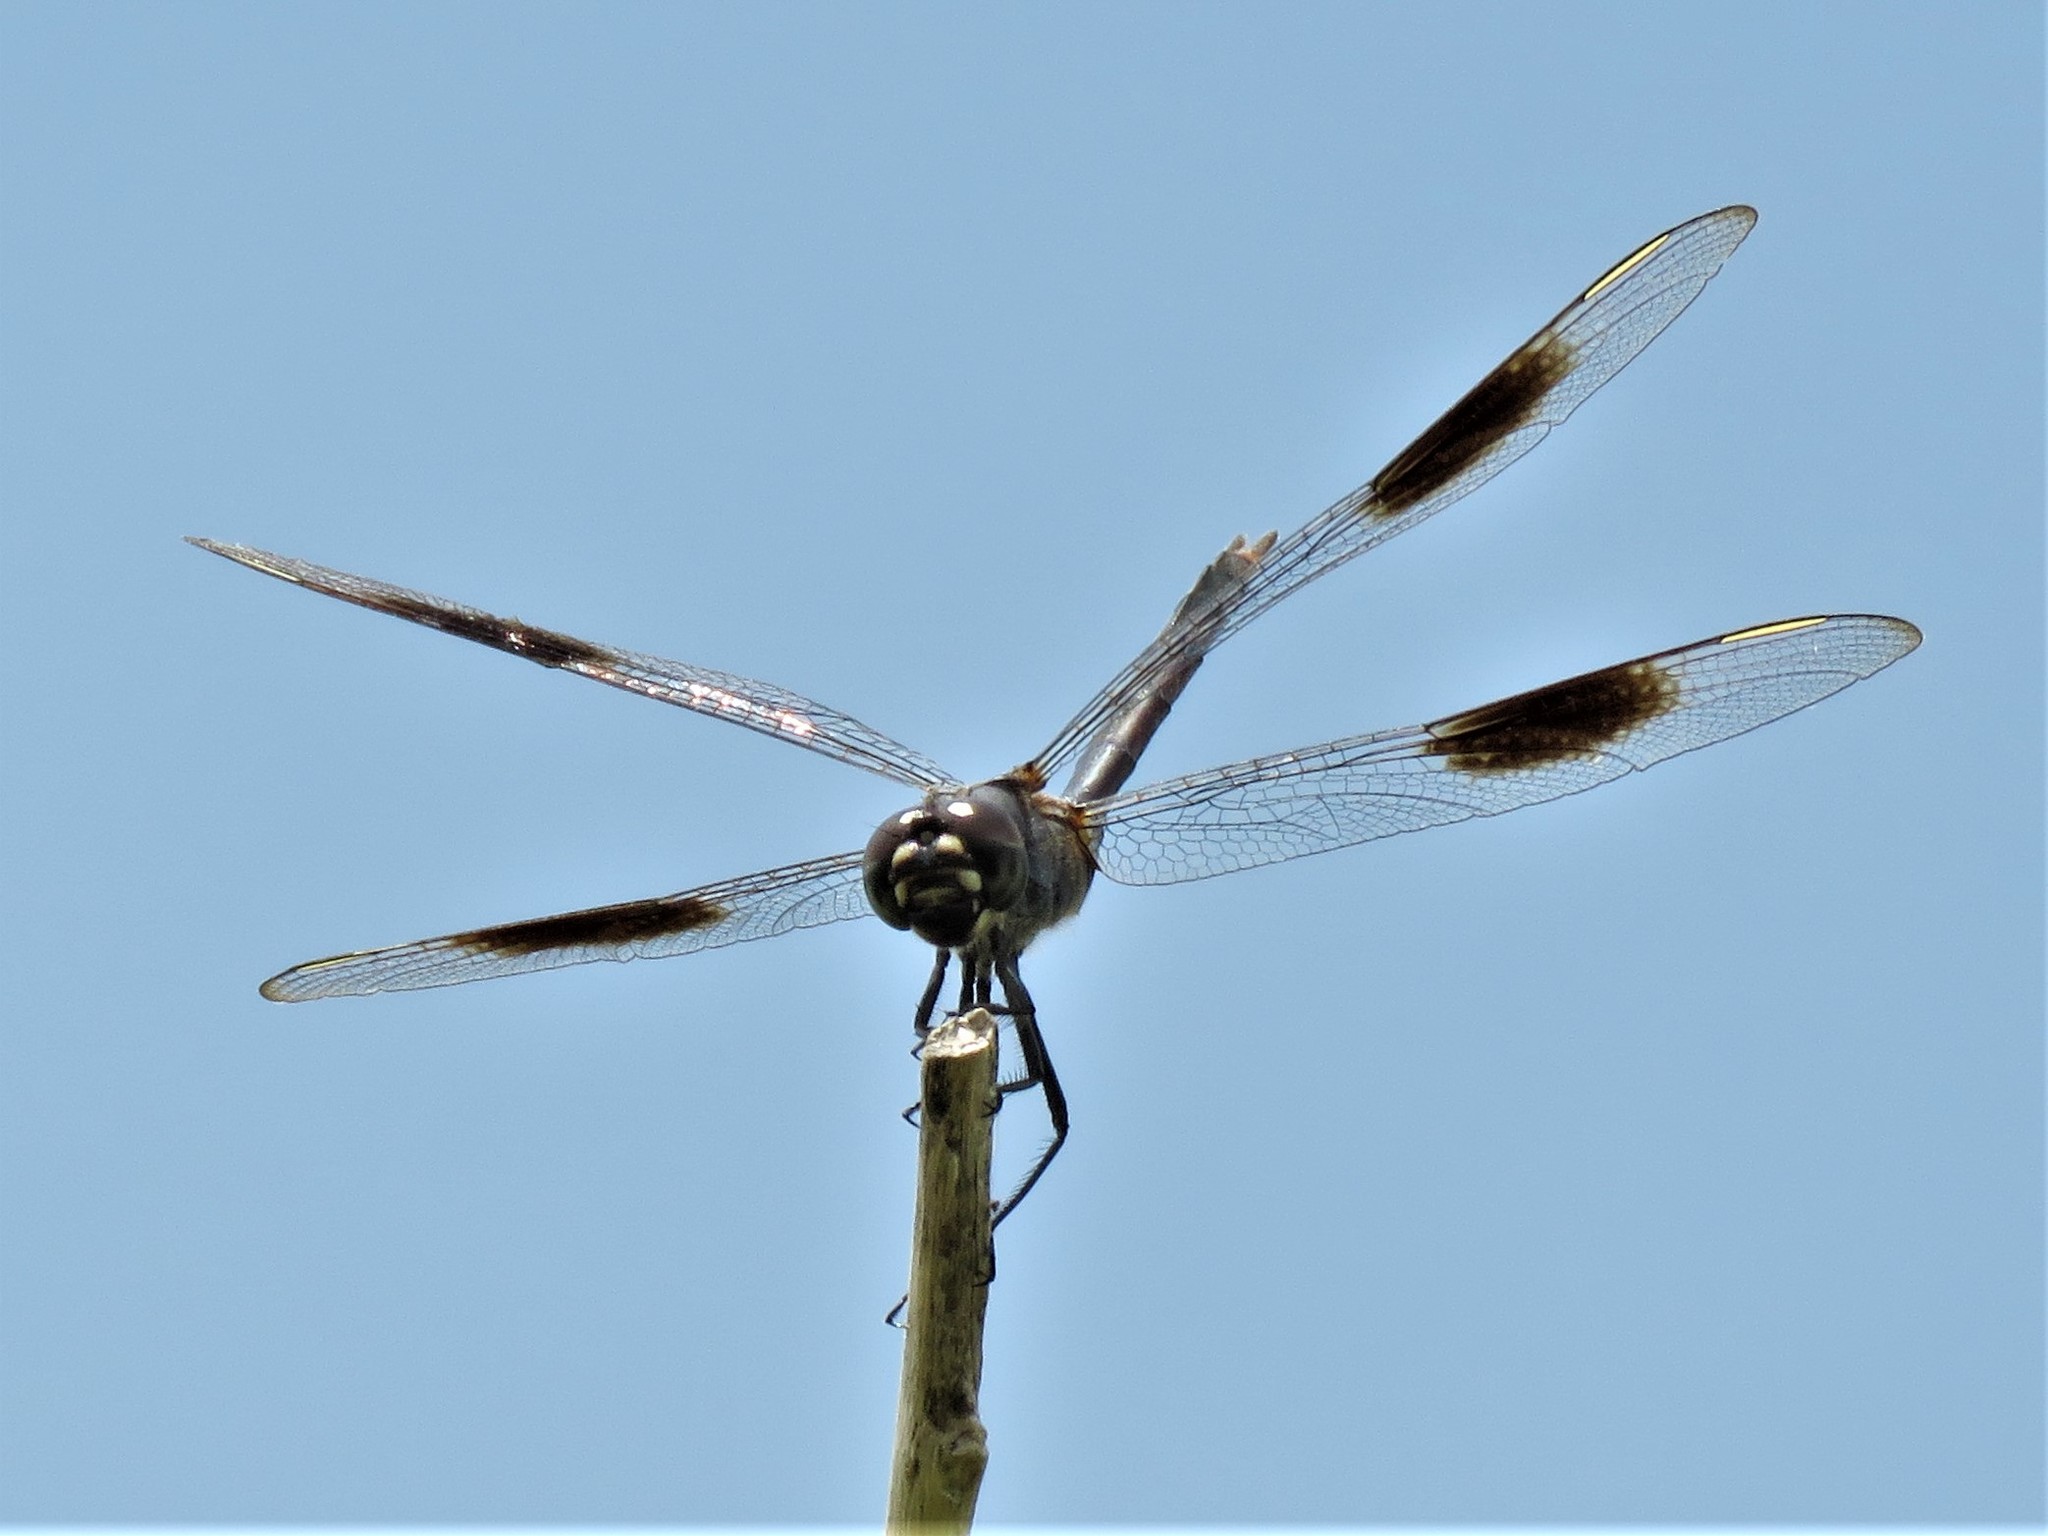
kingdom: Animalia
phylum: Arthropoda
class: Insecta
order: Odonata
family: Libellulidae
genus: Brachymesia
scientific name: Brachymesia gravida
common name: Four-spotted pennant
